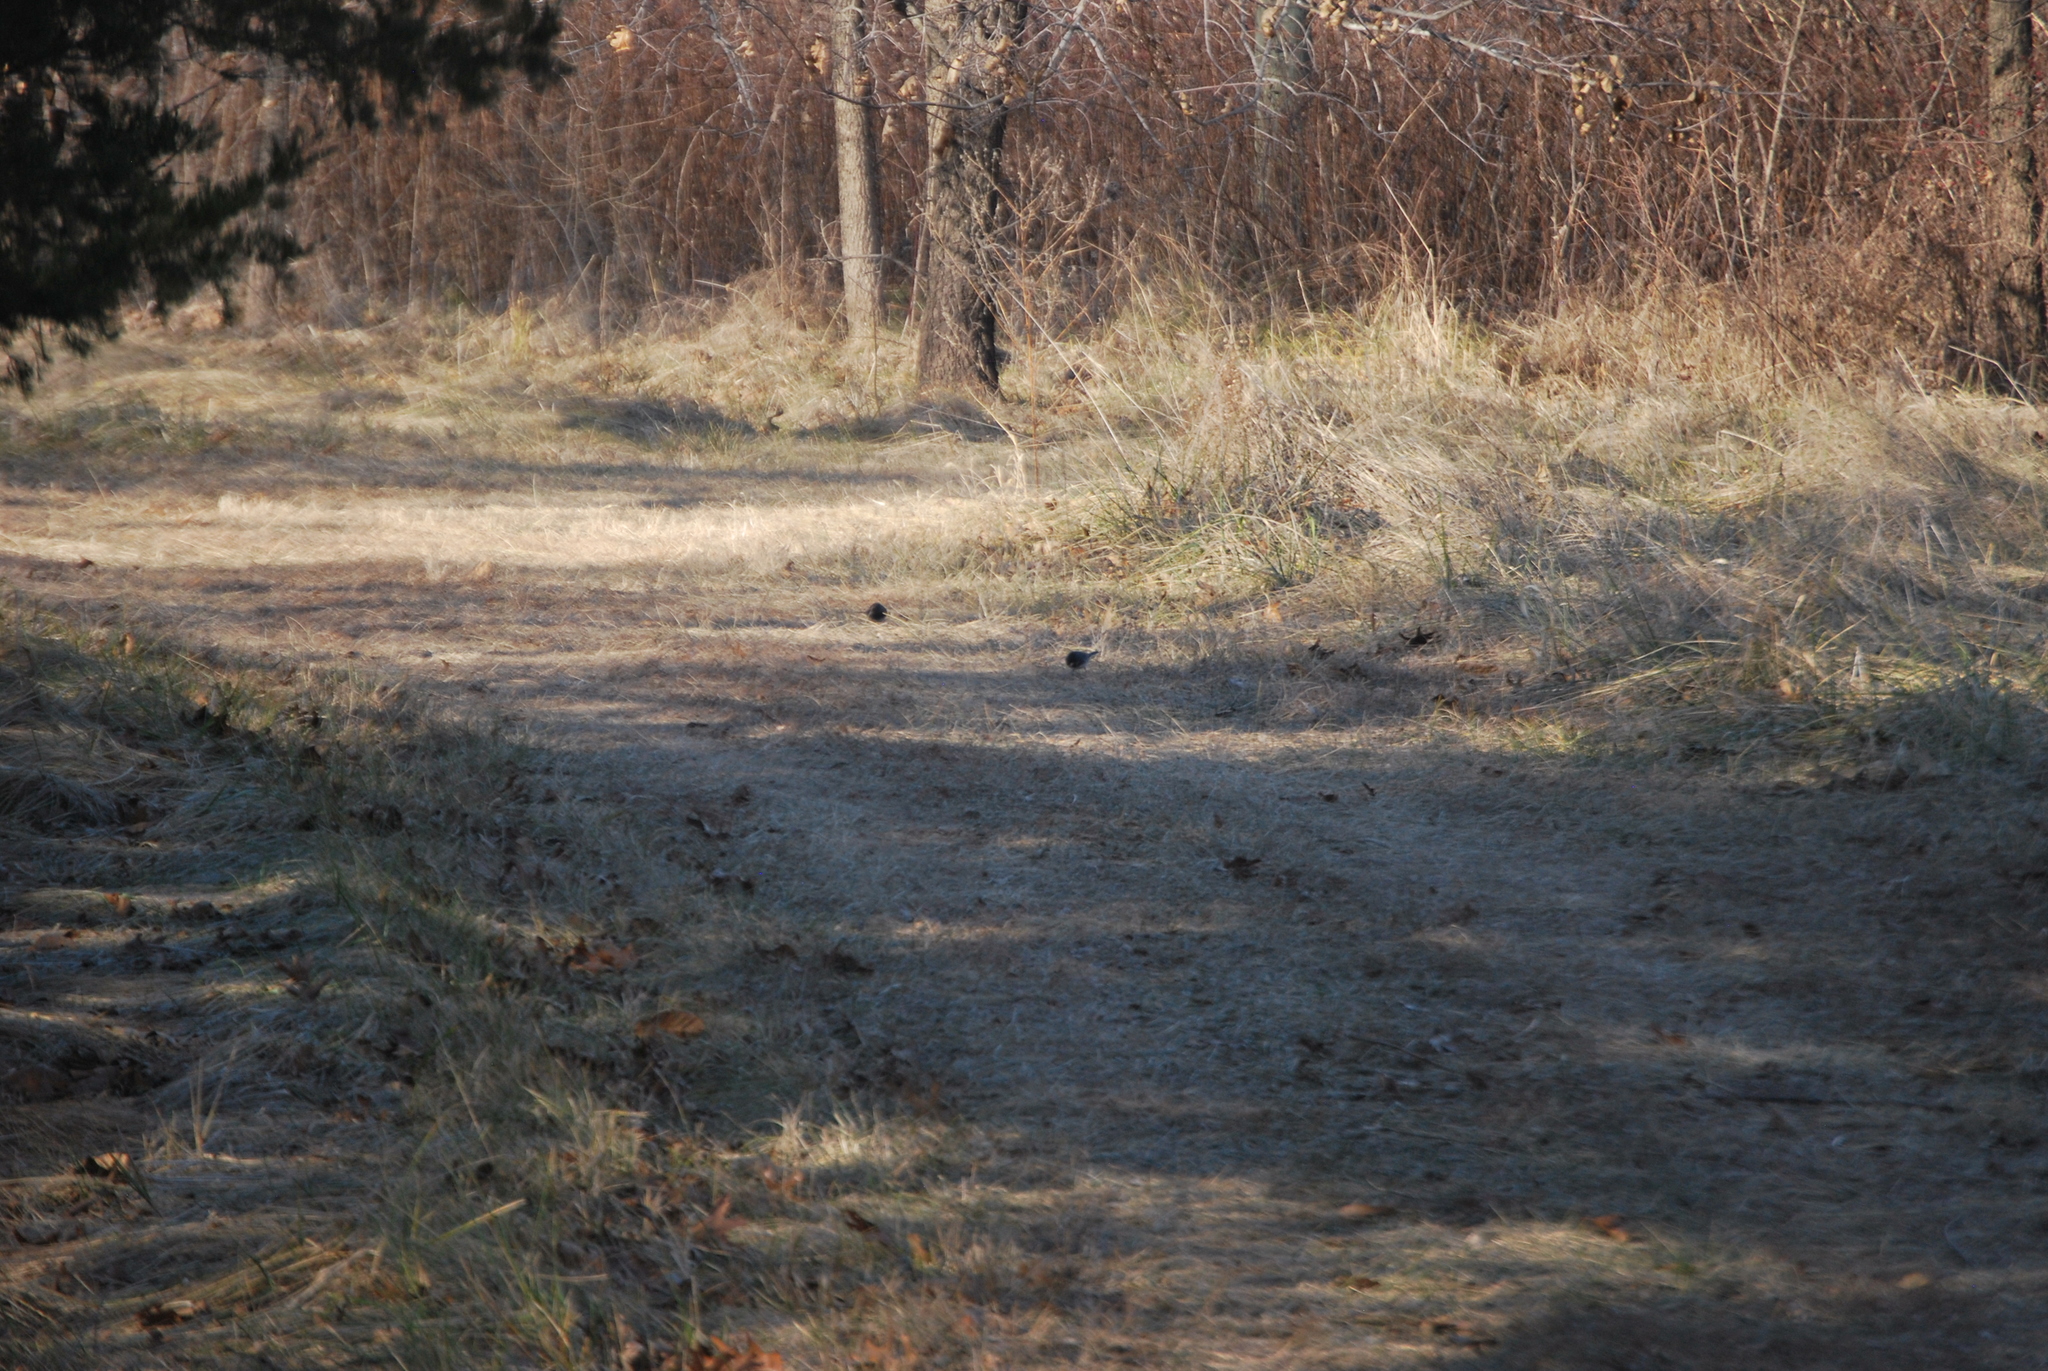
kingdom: Animalia
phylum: Chordata
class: Aves
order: Passeriformes
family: Passerellidae
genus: Junco
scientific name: Junco hyemalis
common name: Dark-eyed junco
